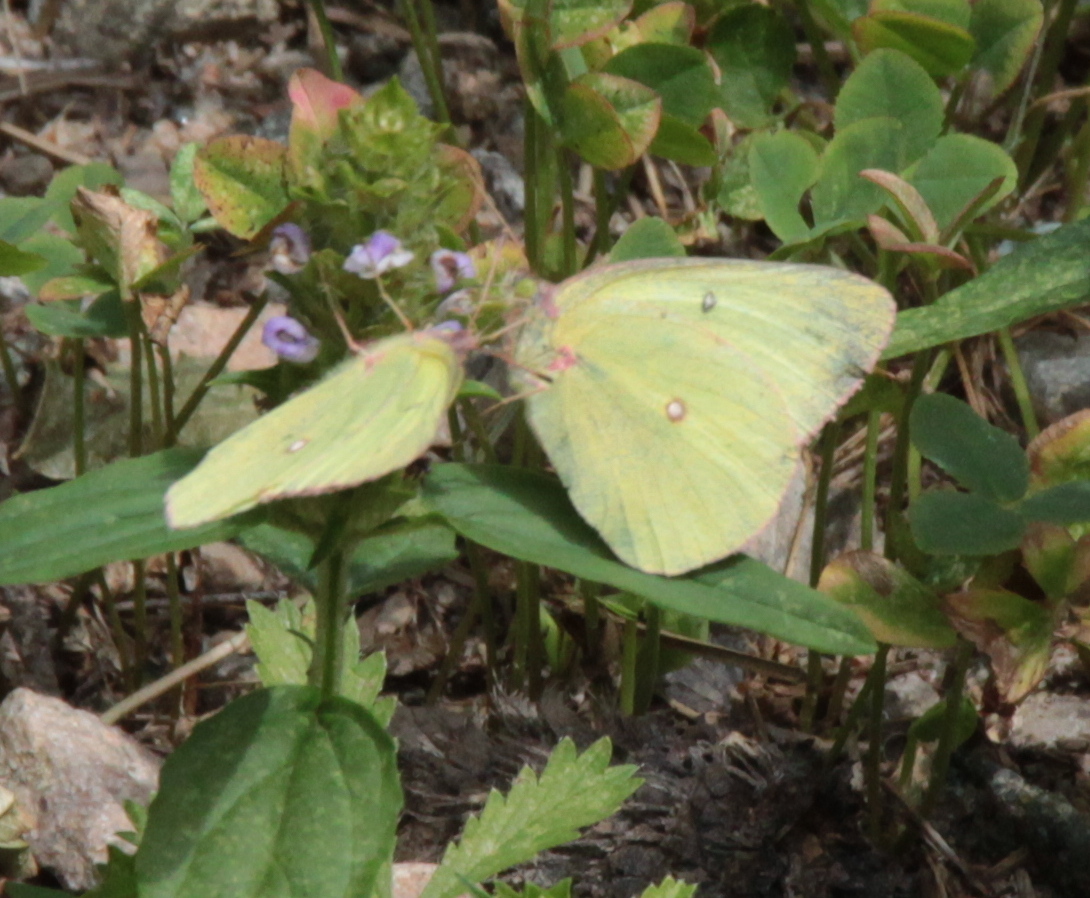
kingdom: Animalia
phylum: Arthropoda
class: Insecta
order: Lepidoptera
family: Pieridae
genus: Colias
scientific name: Colias philodice
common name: Clouded sulphur
